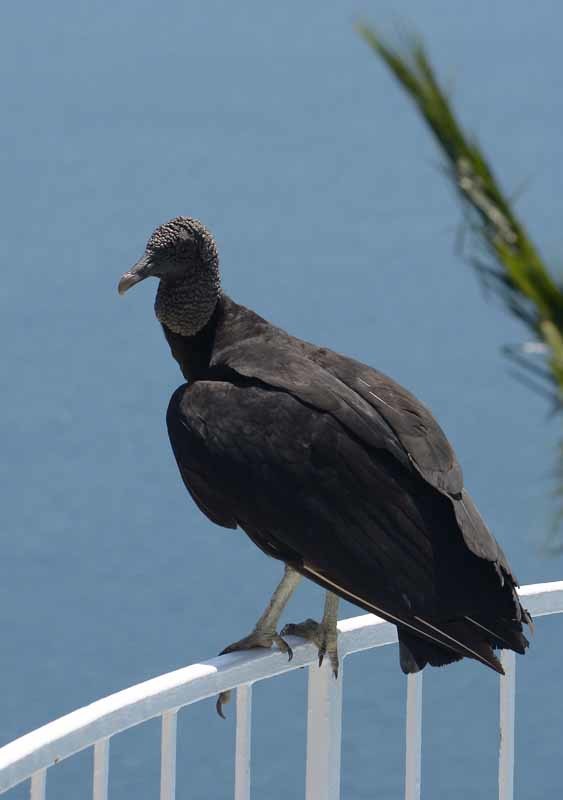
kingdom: Animalia
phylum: Chordata
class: Aves
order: Accipitriformes
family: Cathartidae
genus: Coragyps
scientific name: Coragyps atratus
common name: Black vulture
